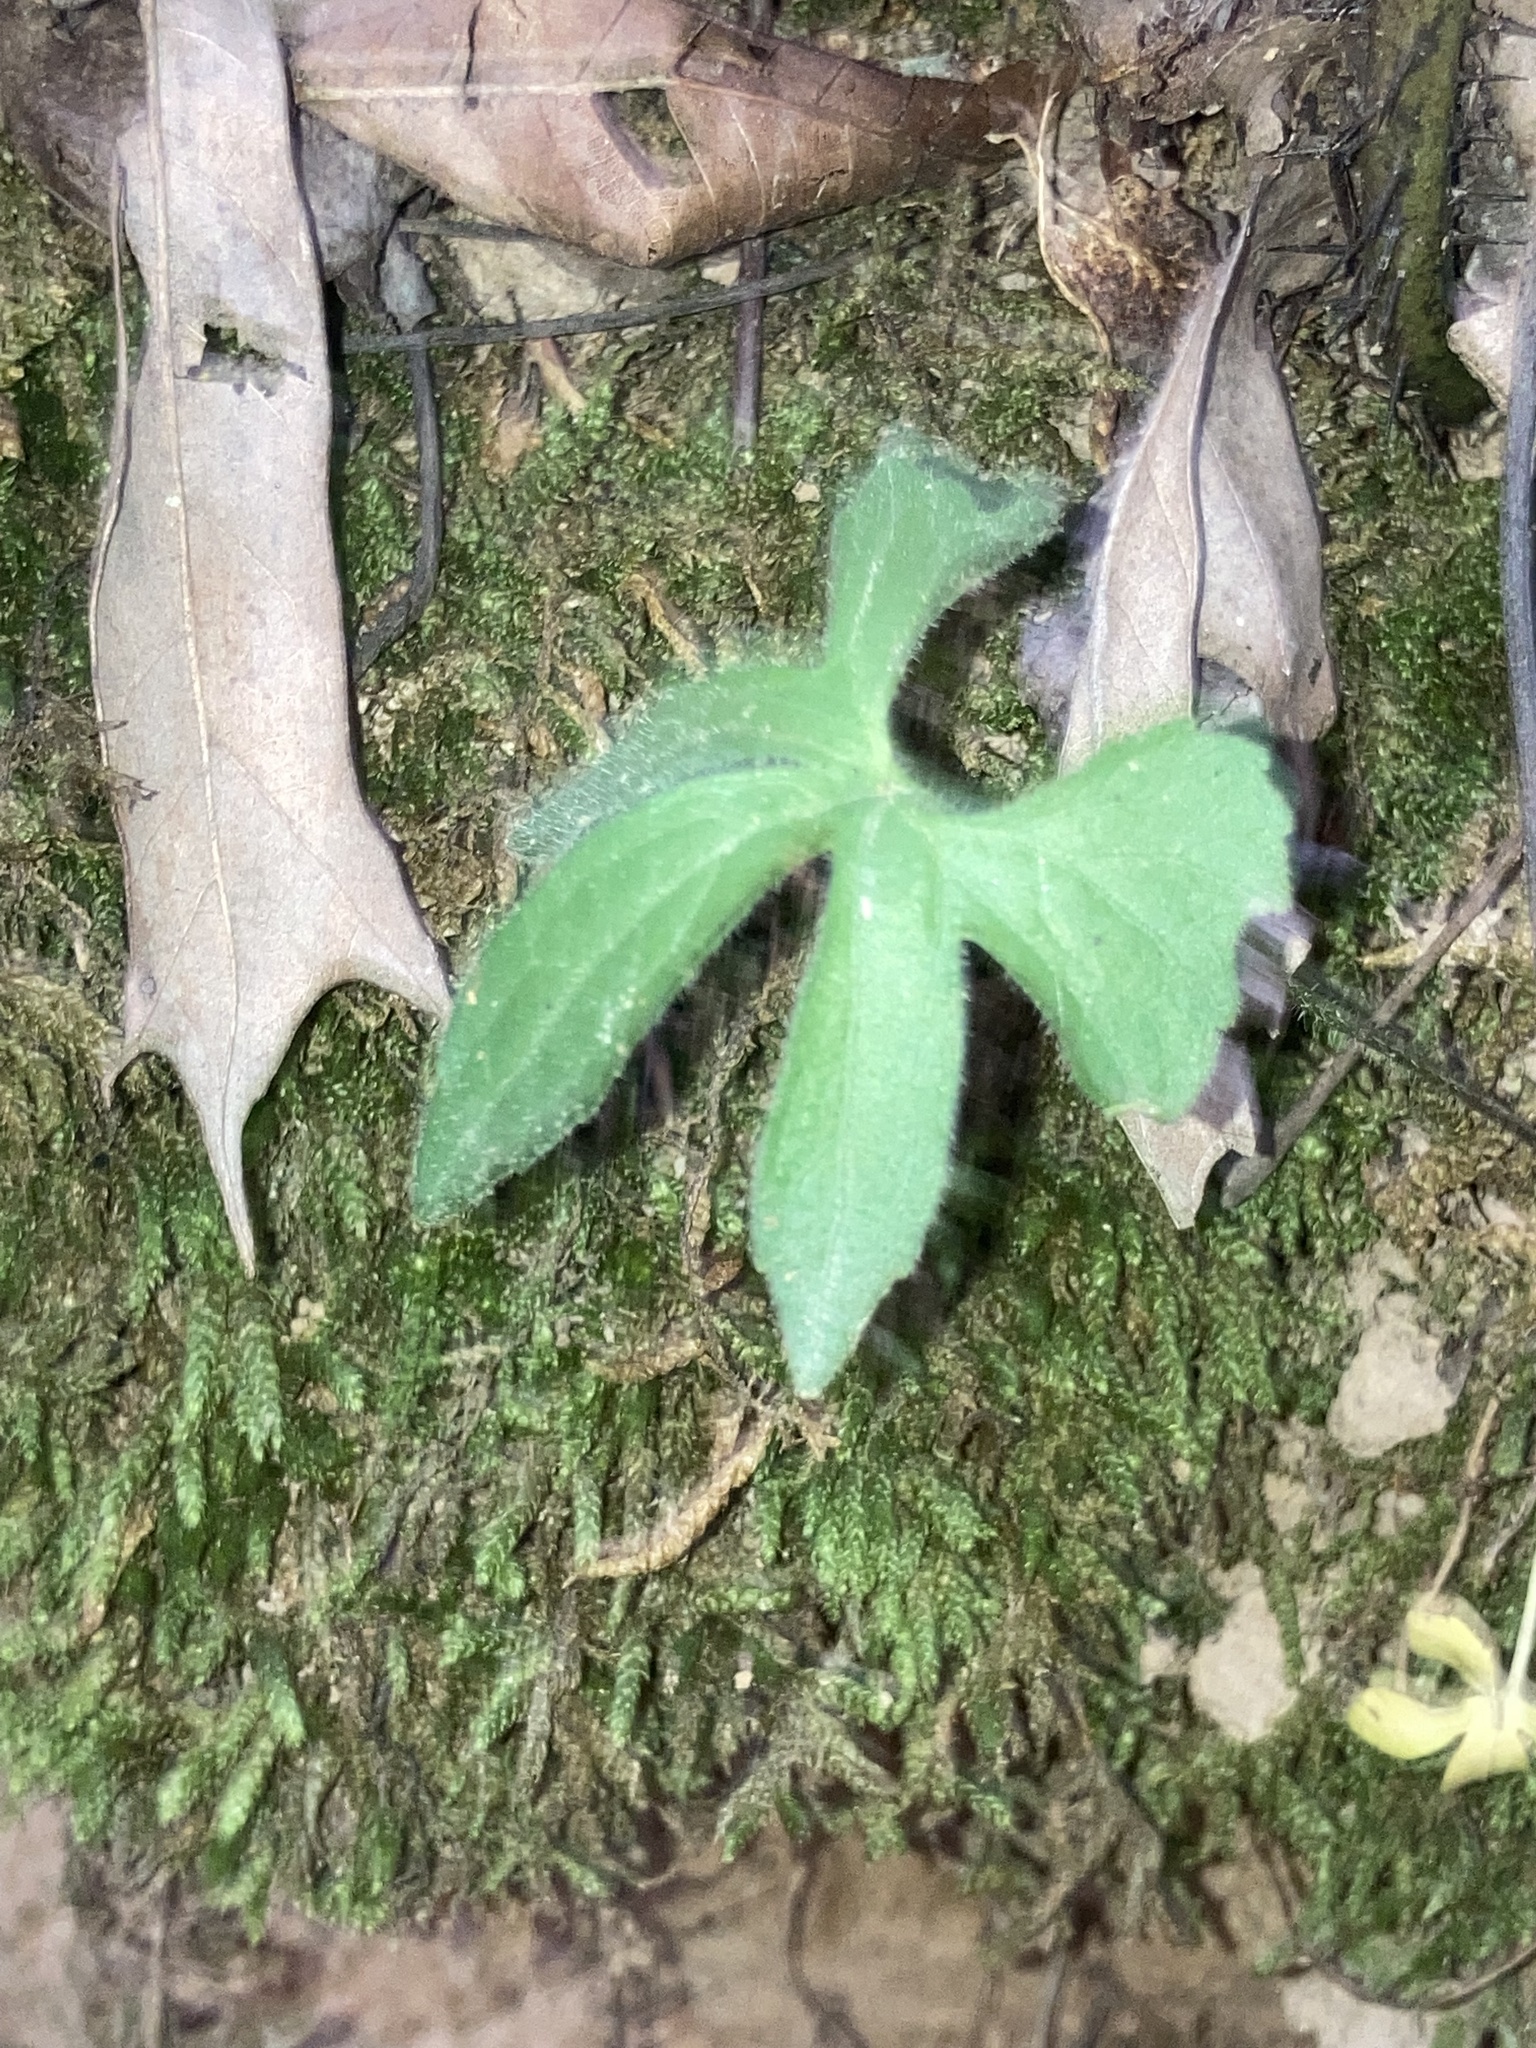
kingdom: Plantae
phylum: Tracheophyta
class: Magnoliopsida
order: Malpighiales
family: Violaceae
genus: Viola
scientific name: Viola palmata
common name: Early blue violet
